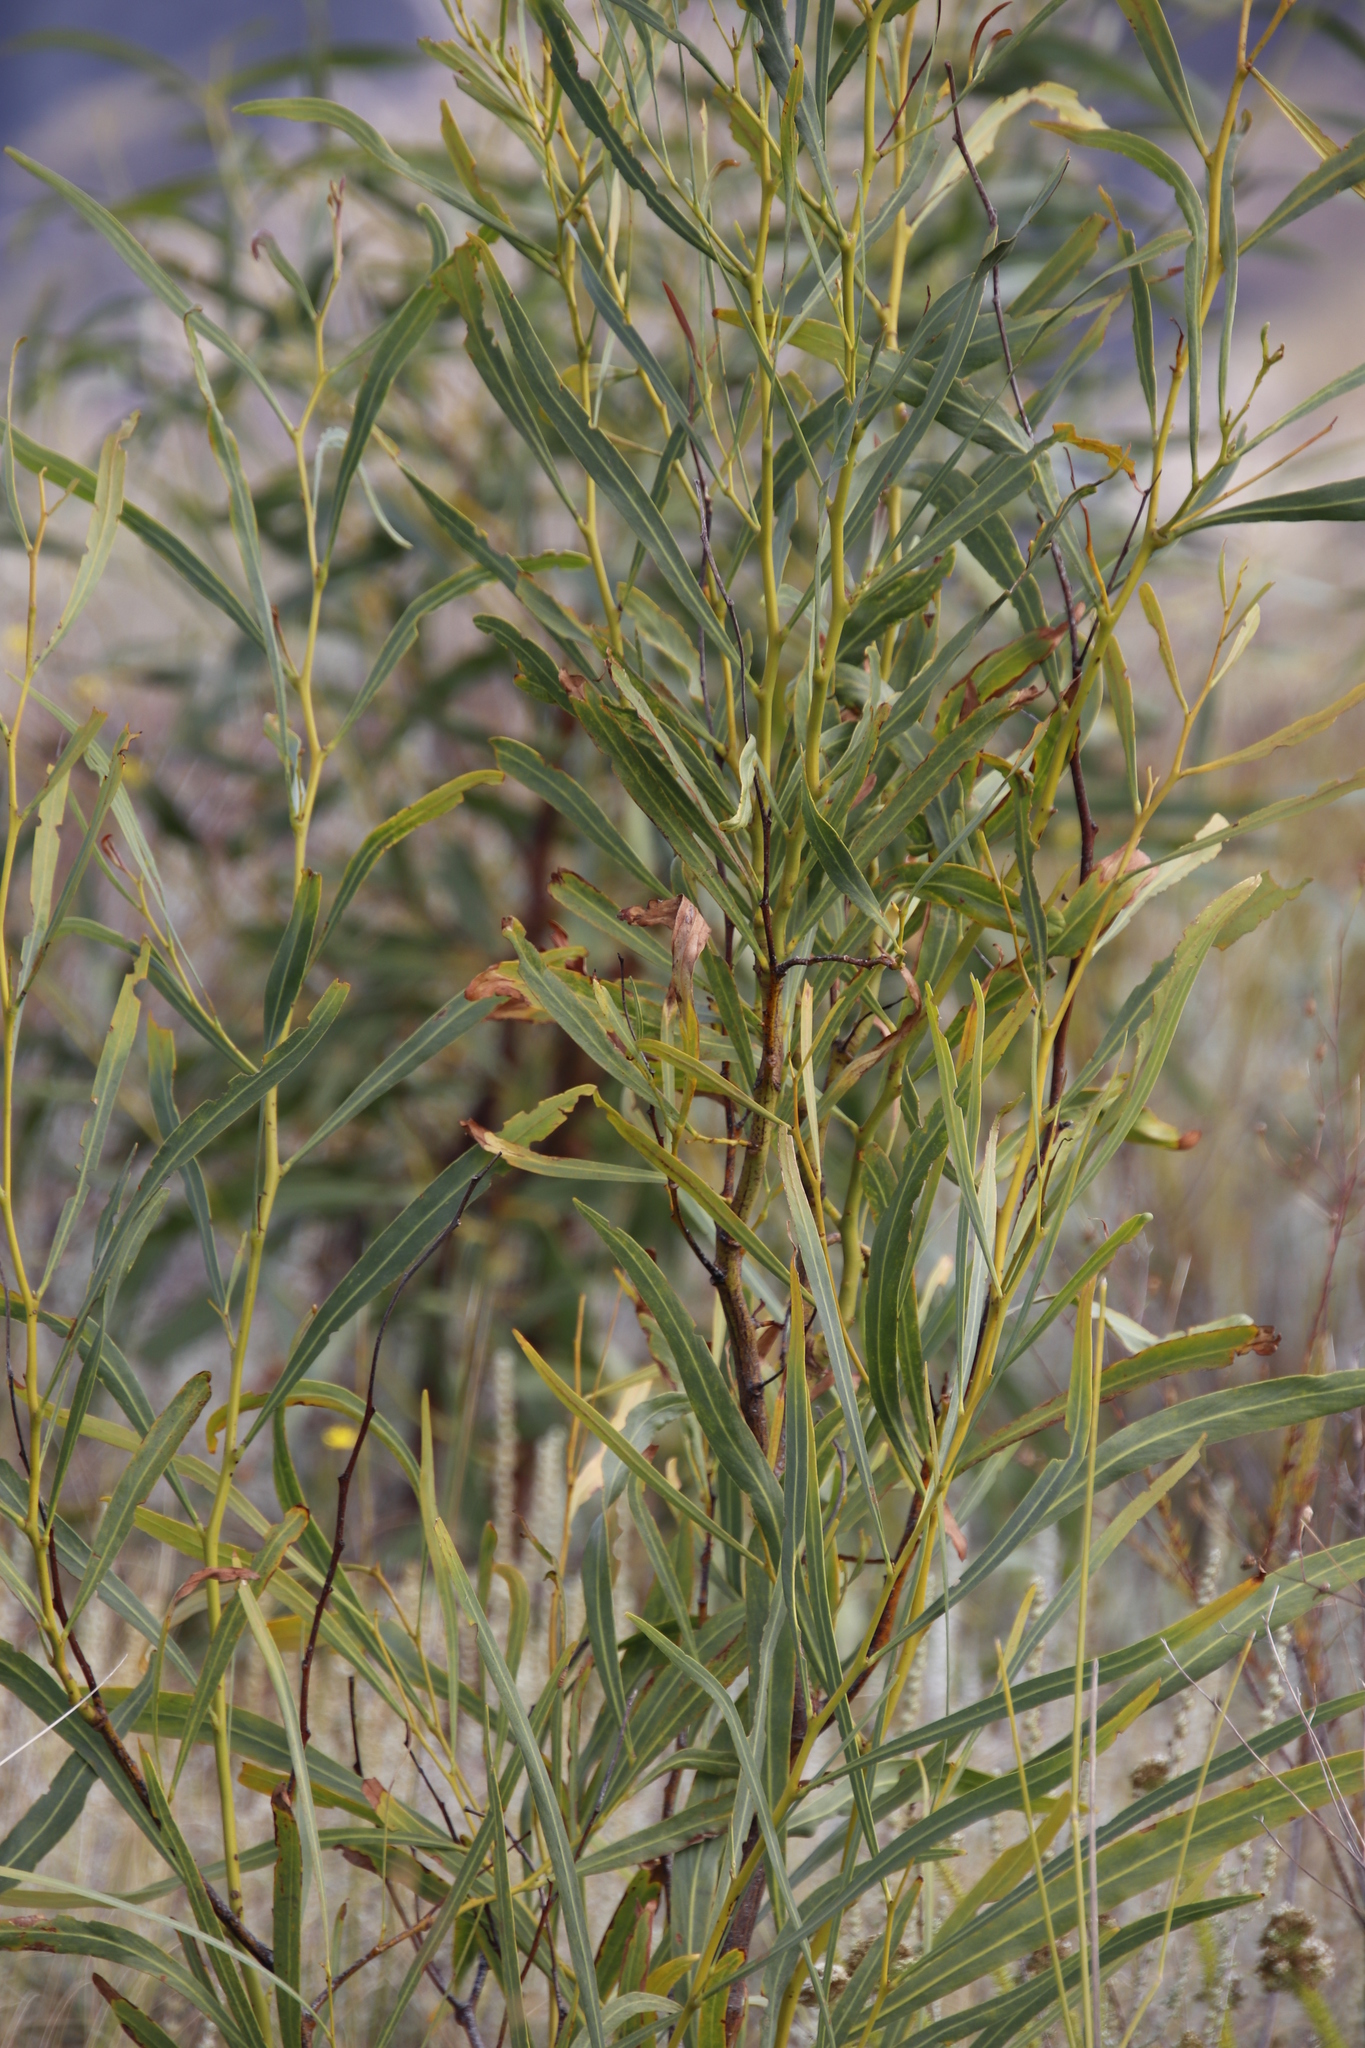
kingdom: Plantae
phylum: Tracheophyta
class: Magnoliopsida
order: Fabales
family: Fabaceae
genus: Acacia
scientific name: Acacia saligna
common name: Orange wattle
